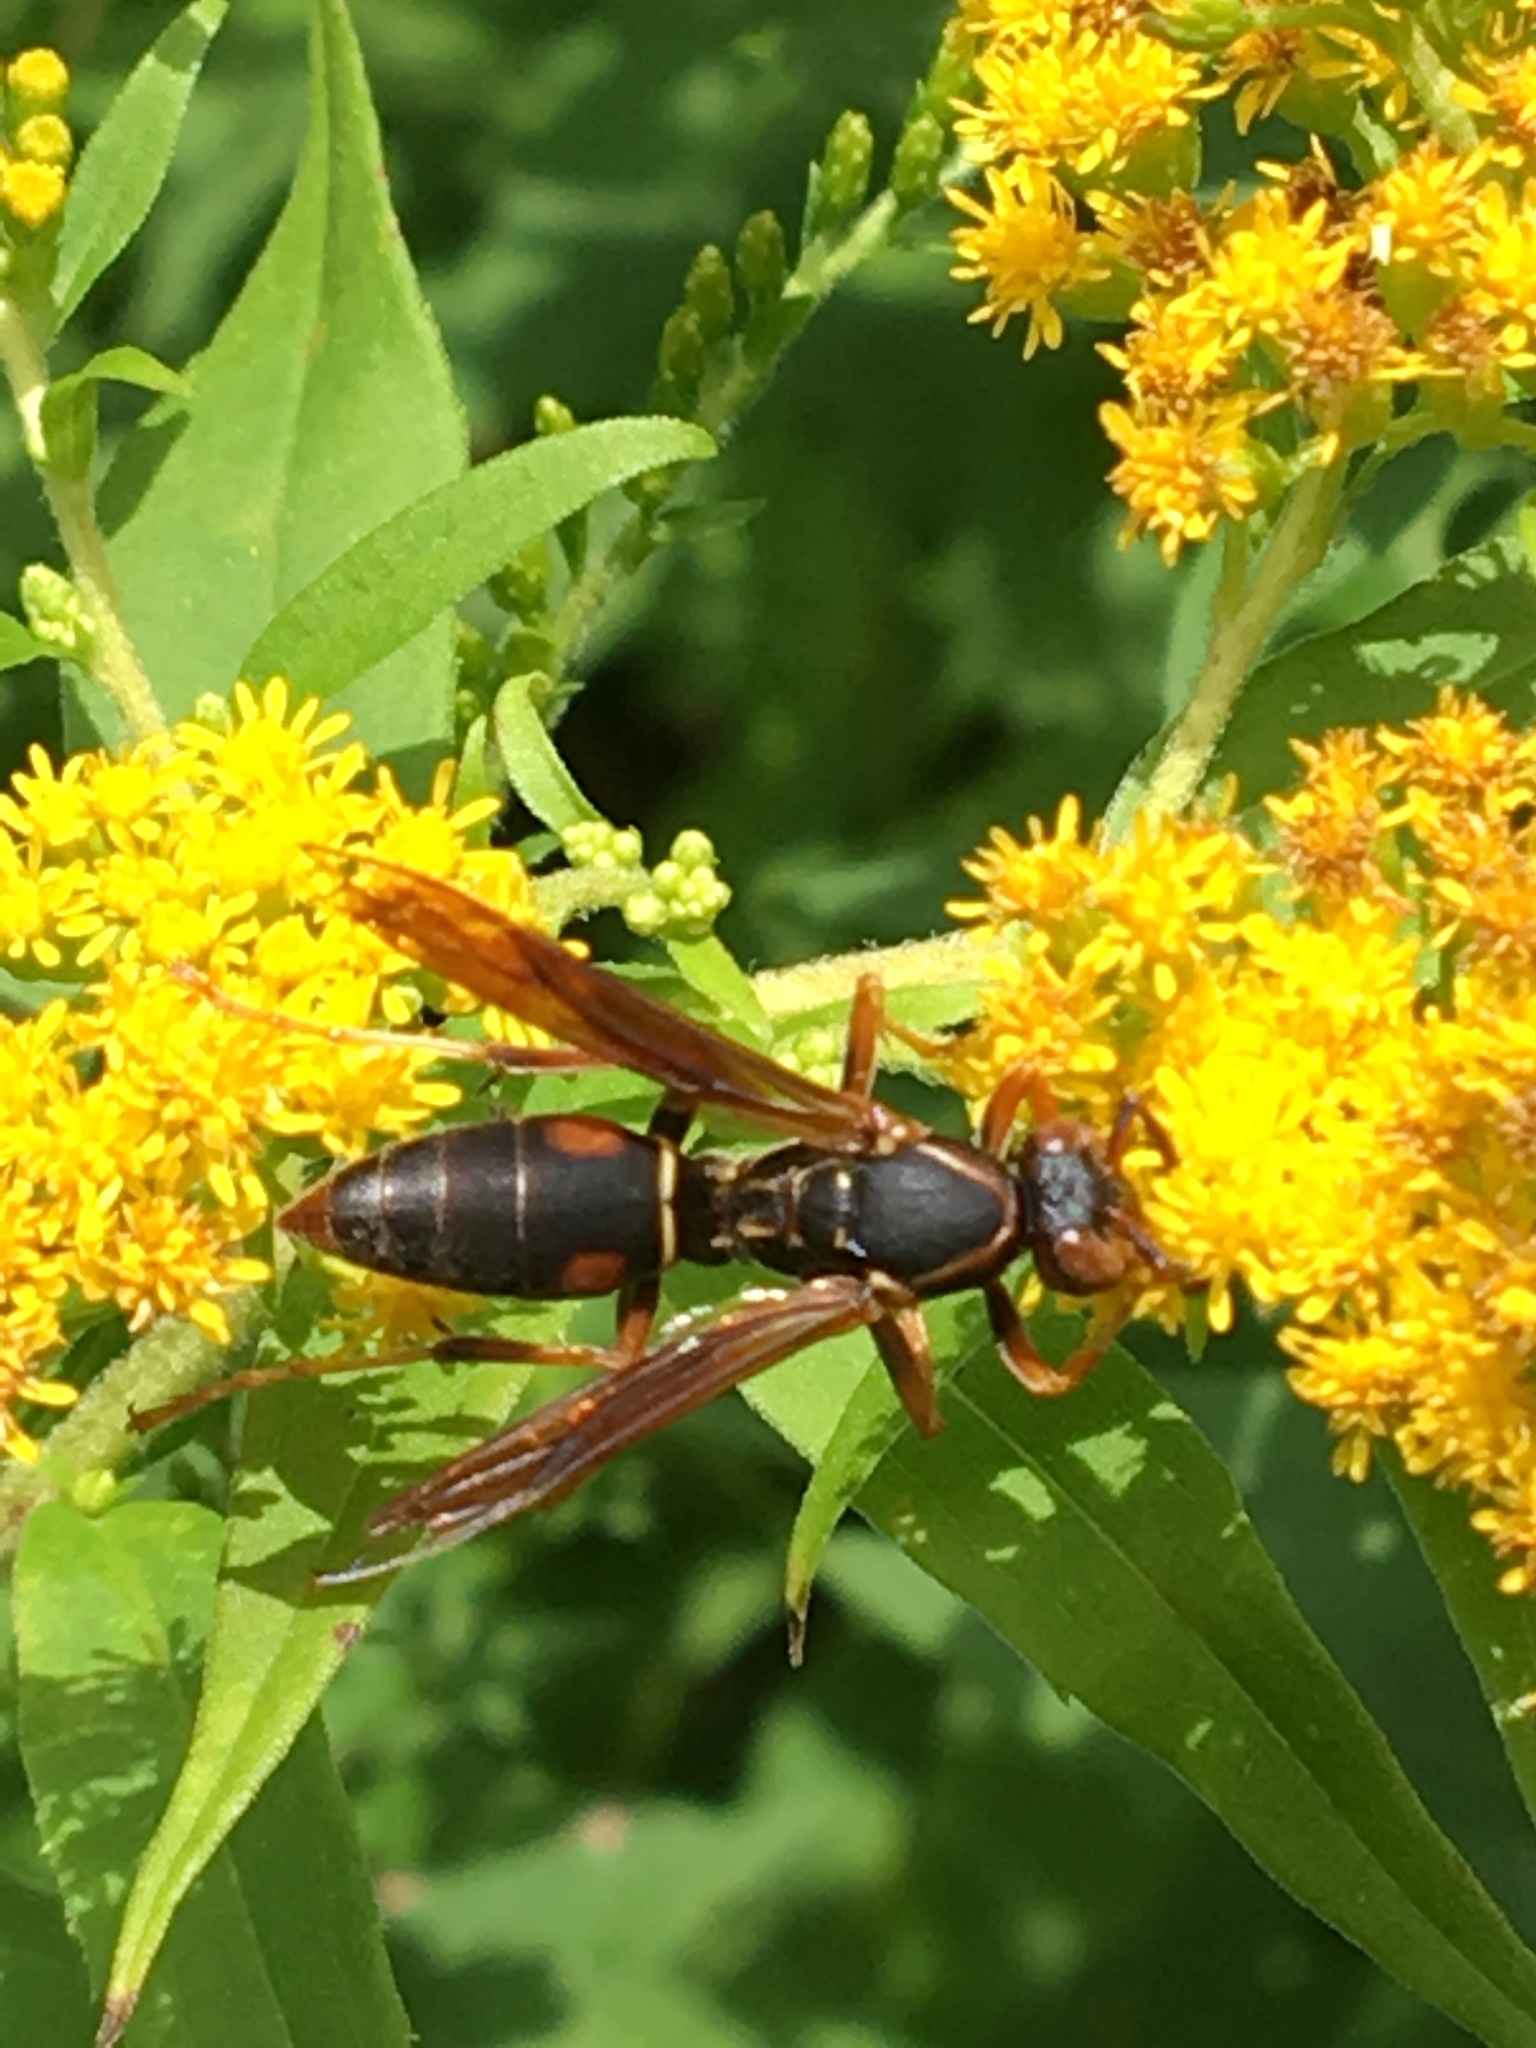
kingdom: Animalia
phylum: Arthropoda
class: Insecta
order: Hymenoptera
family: Eumenidae
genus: Polistes
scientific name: Polistes fuscatus
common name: Dark paper wasp
